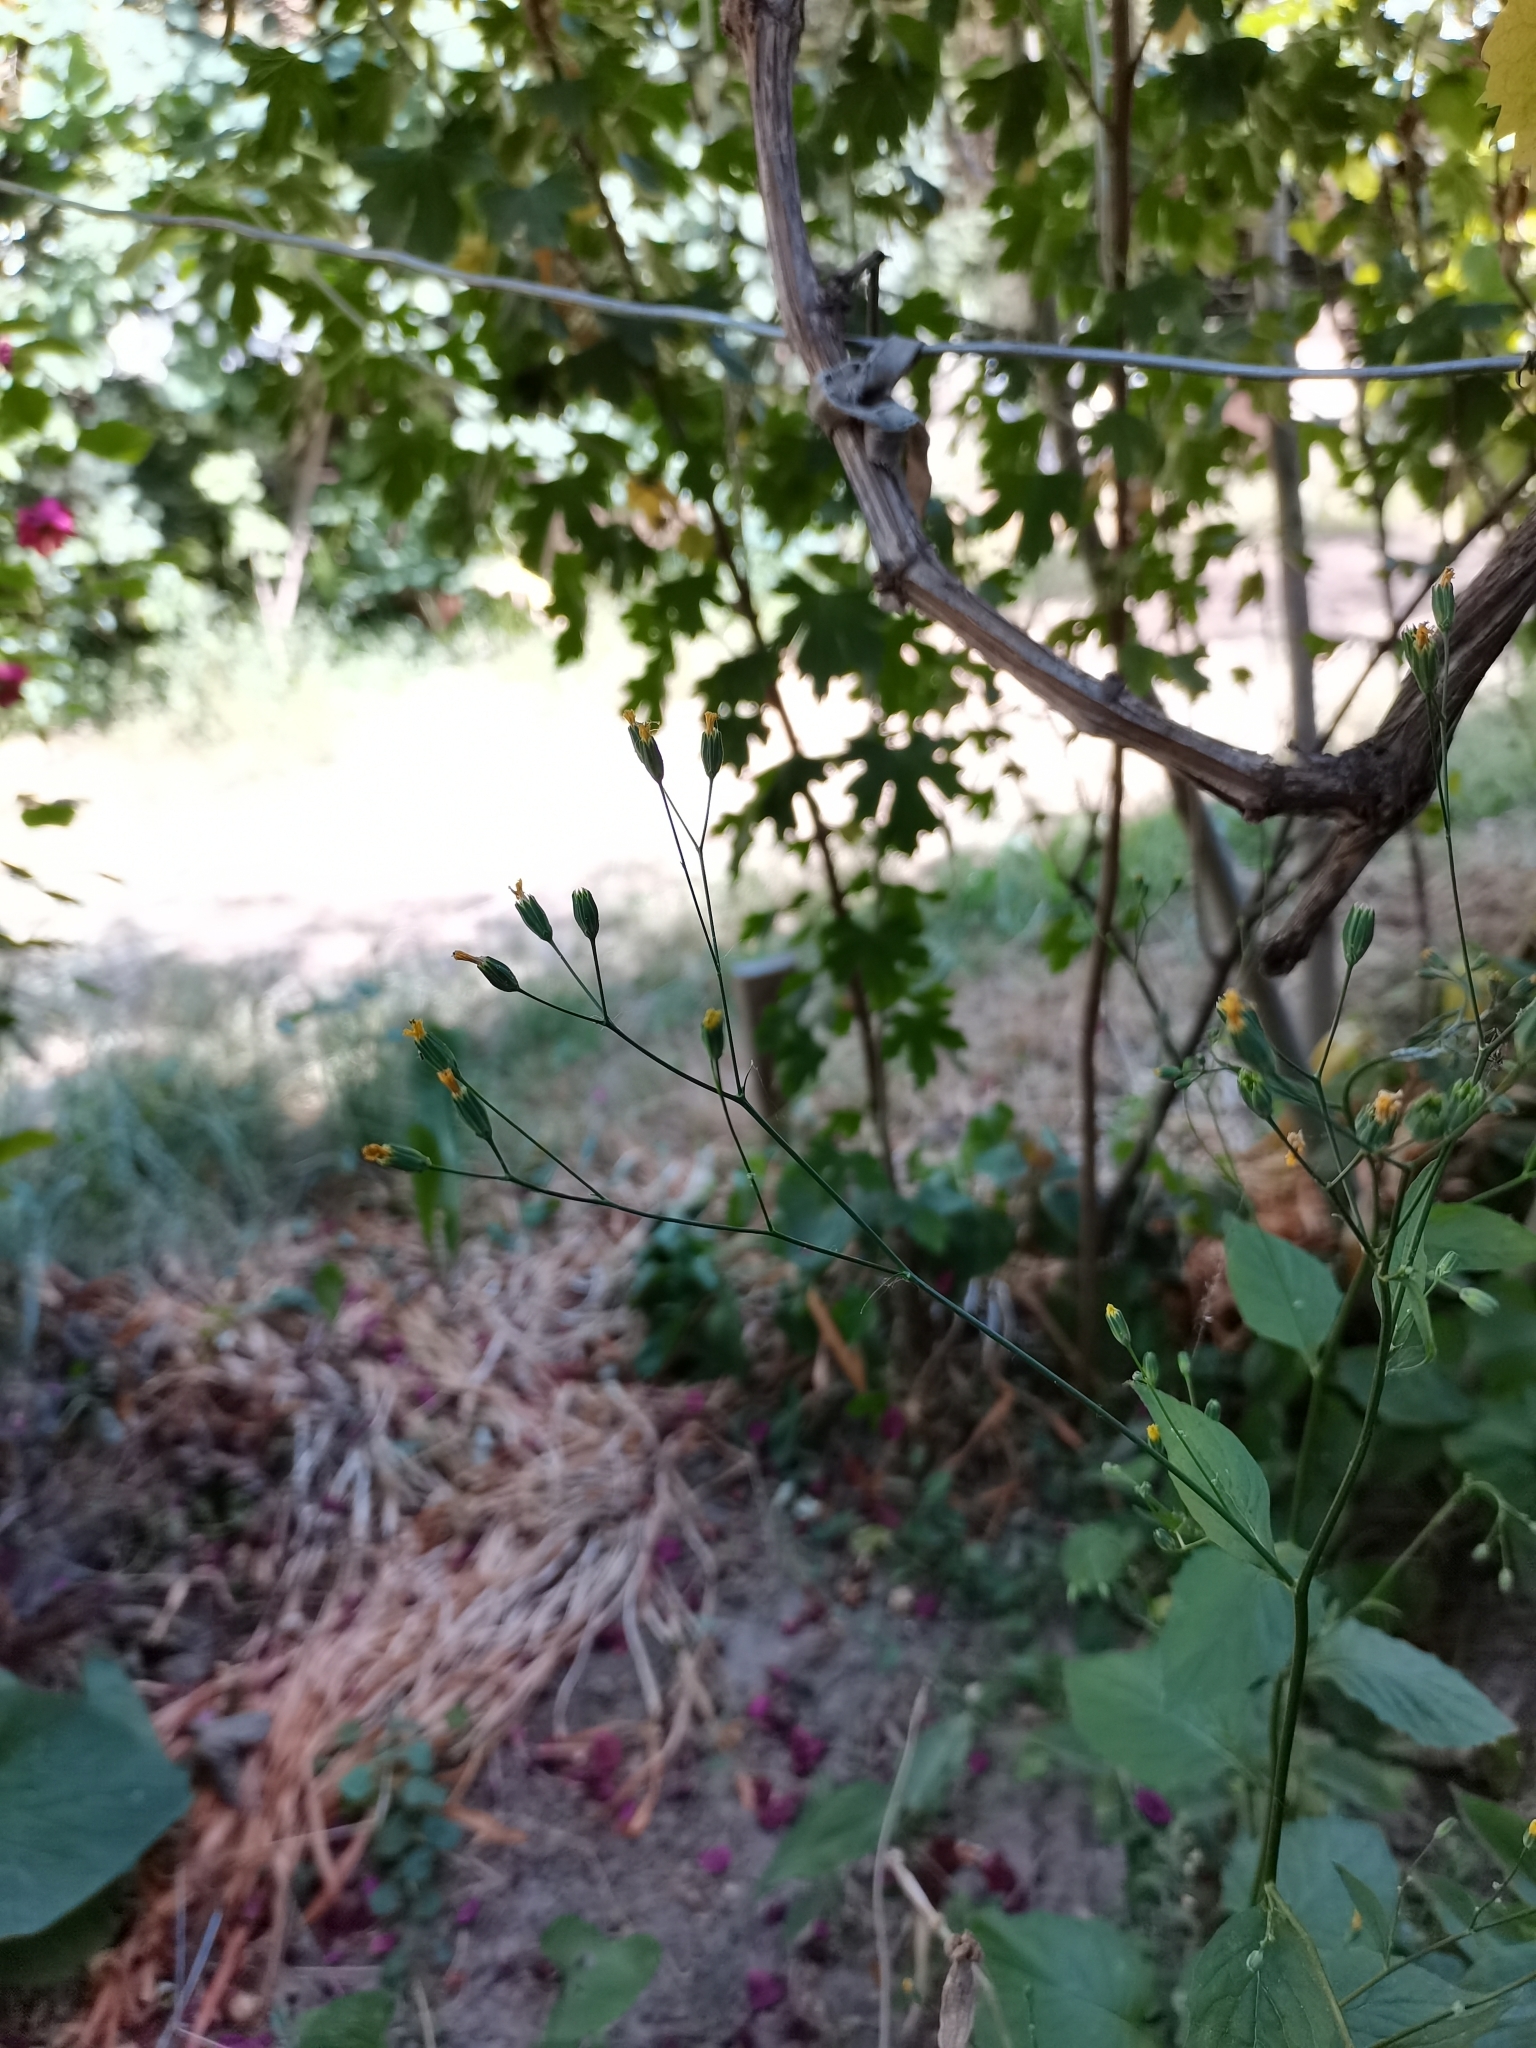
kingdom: Plantae
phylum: Tracheophyta
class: Magnoliopsida
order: Asterales
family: Asteraceae
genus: Lapsana
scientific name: Lapsana communis
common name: Nipplewort
